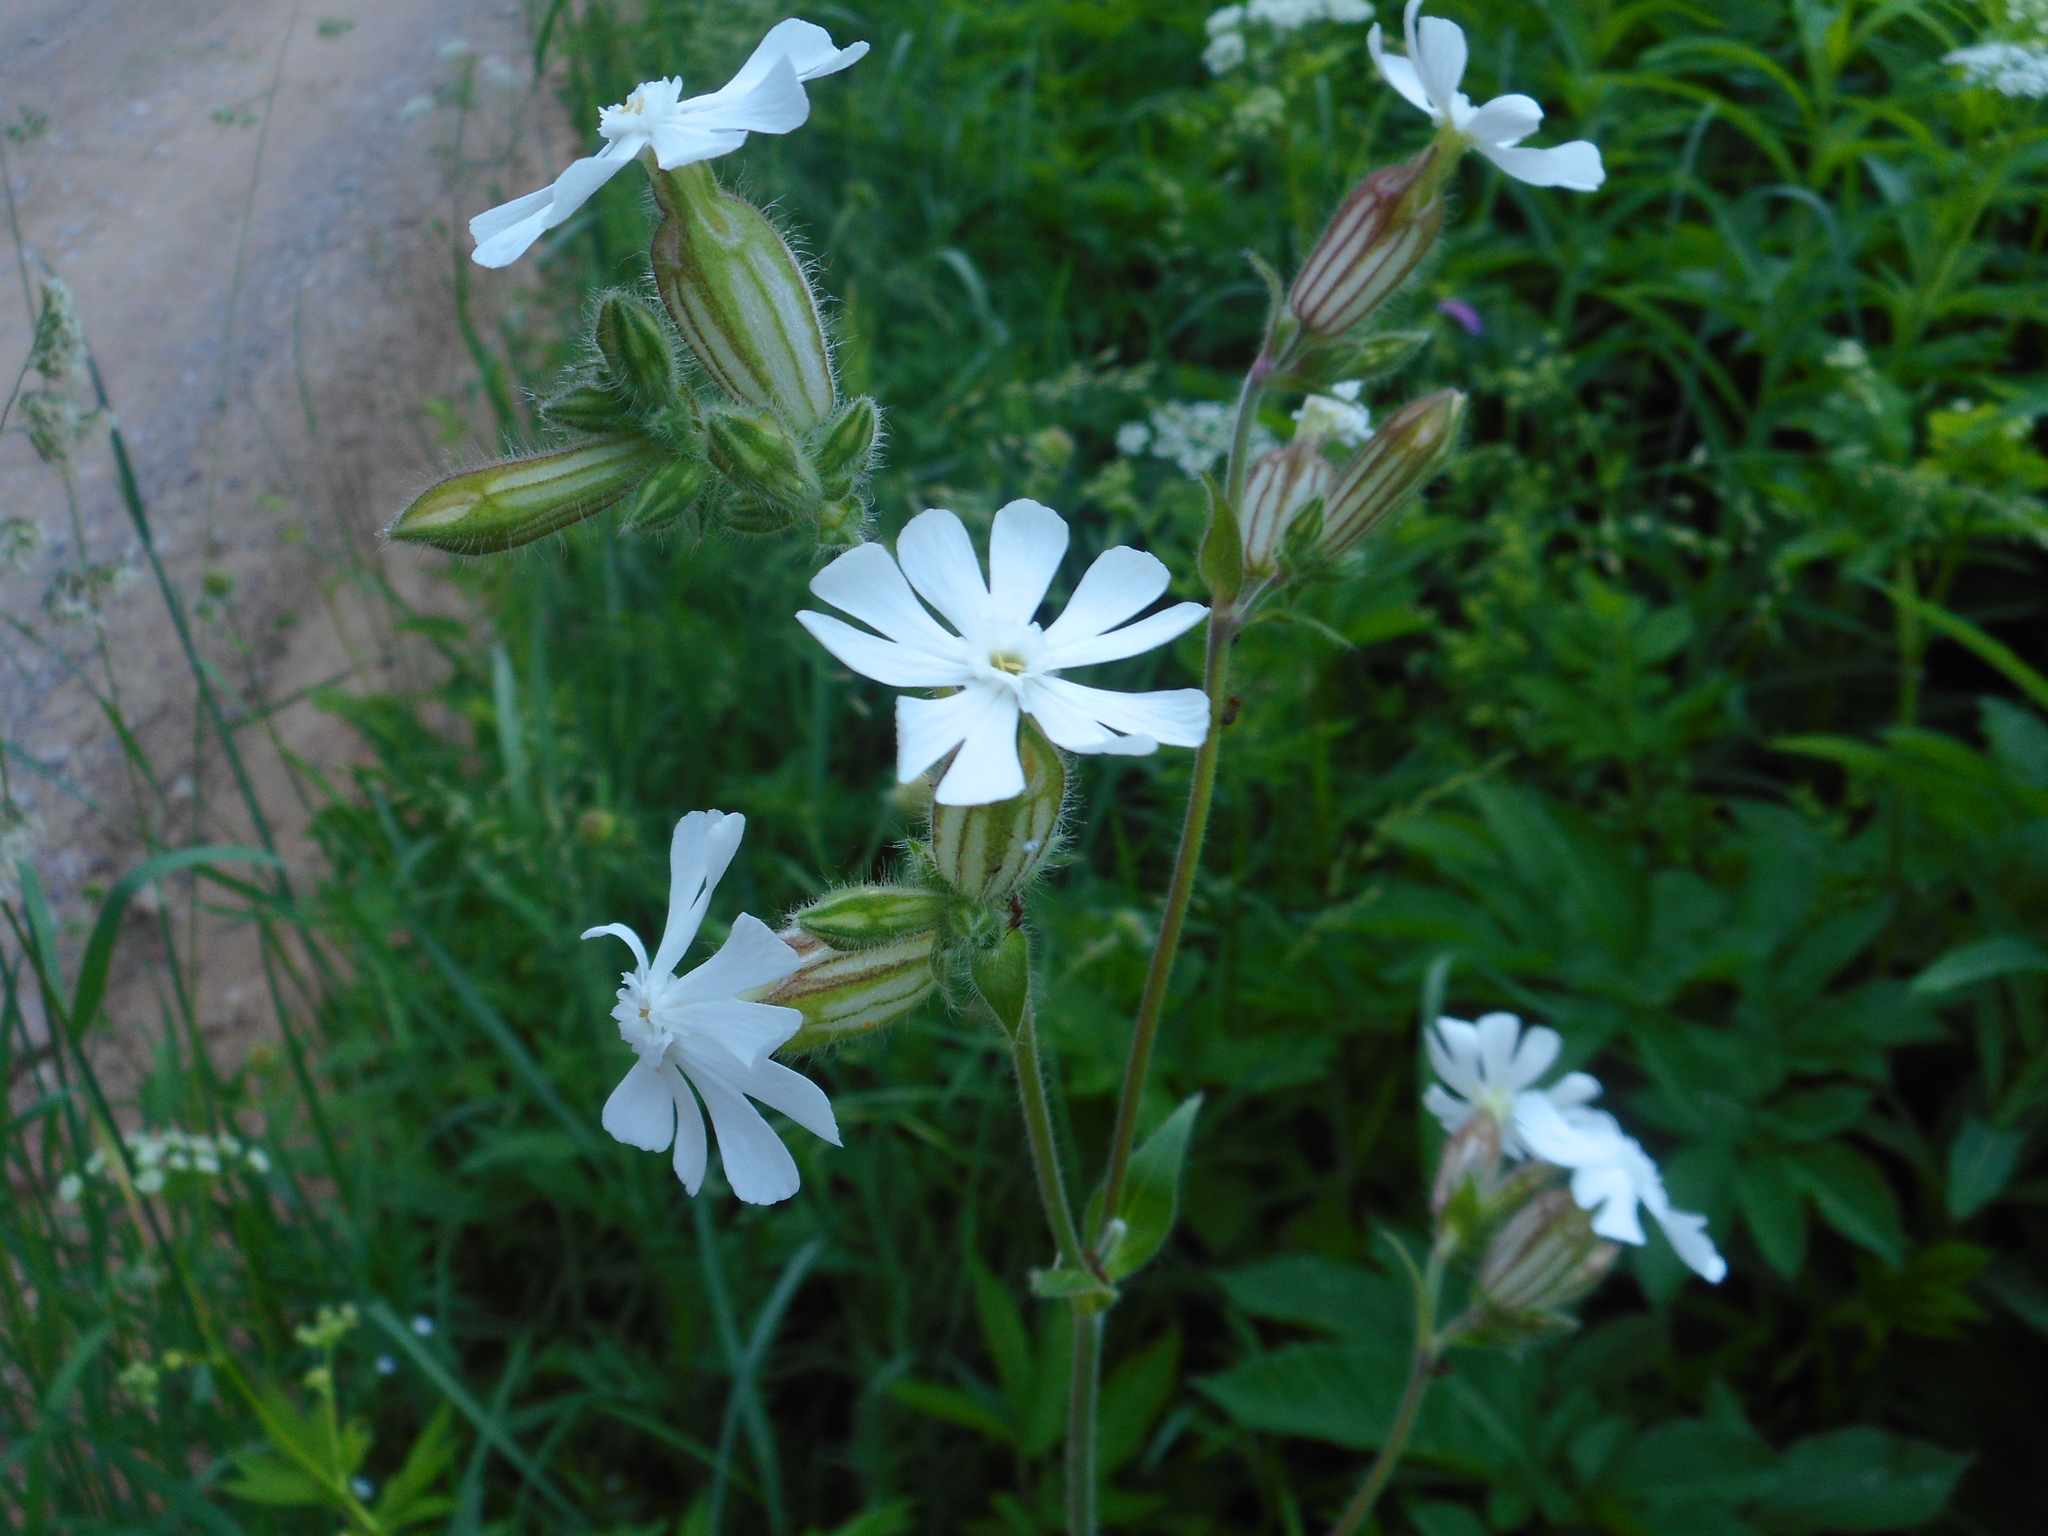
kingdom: Plantae
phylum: Tracheophyta
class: Magnoliopsida
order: Caryophyllales
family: Caryophyllaceae
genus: Silene
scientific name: Silene latifolia
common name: White campion
